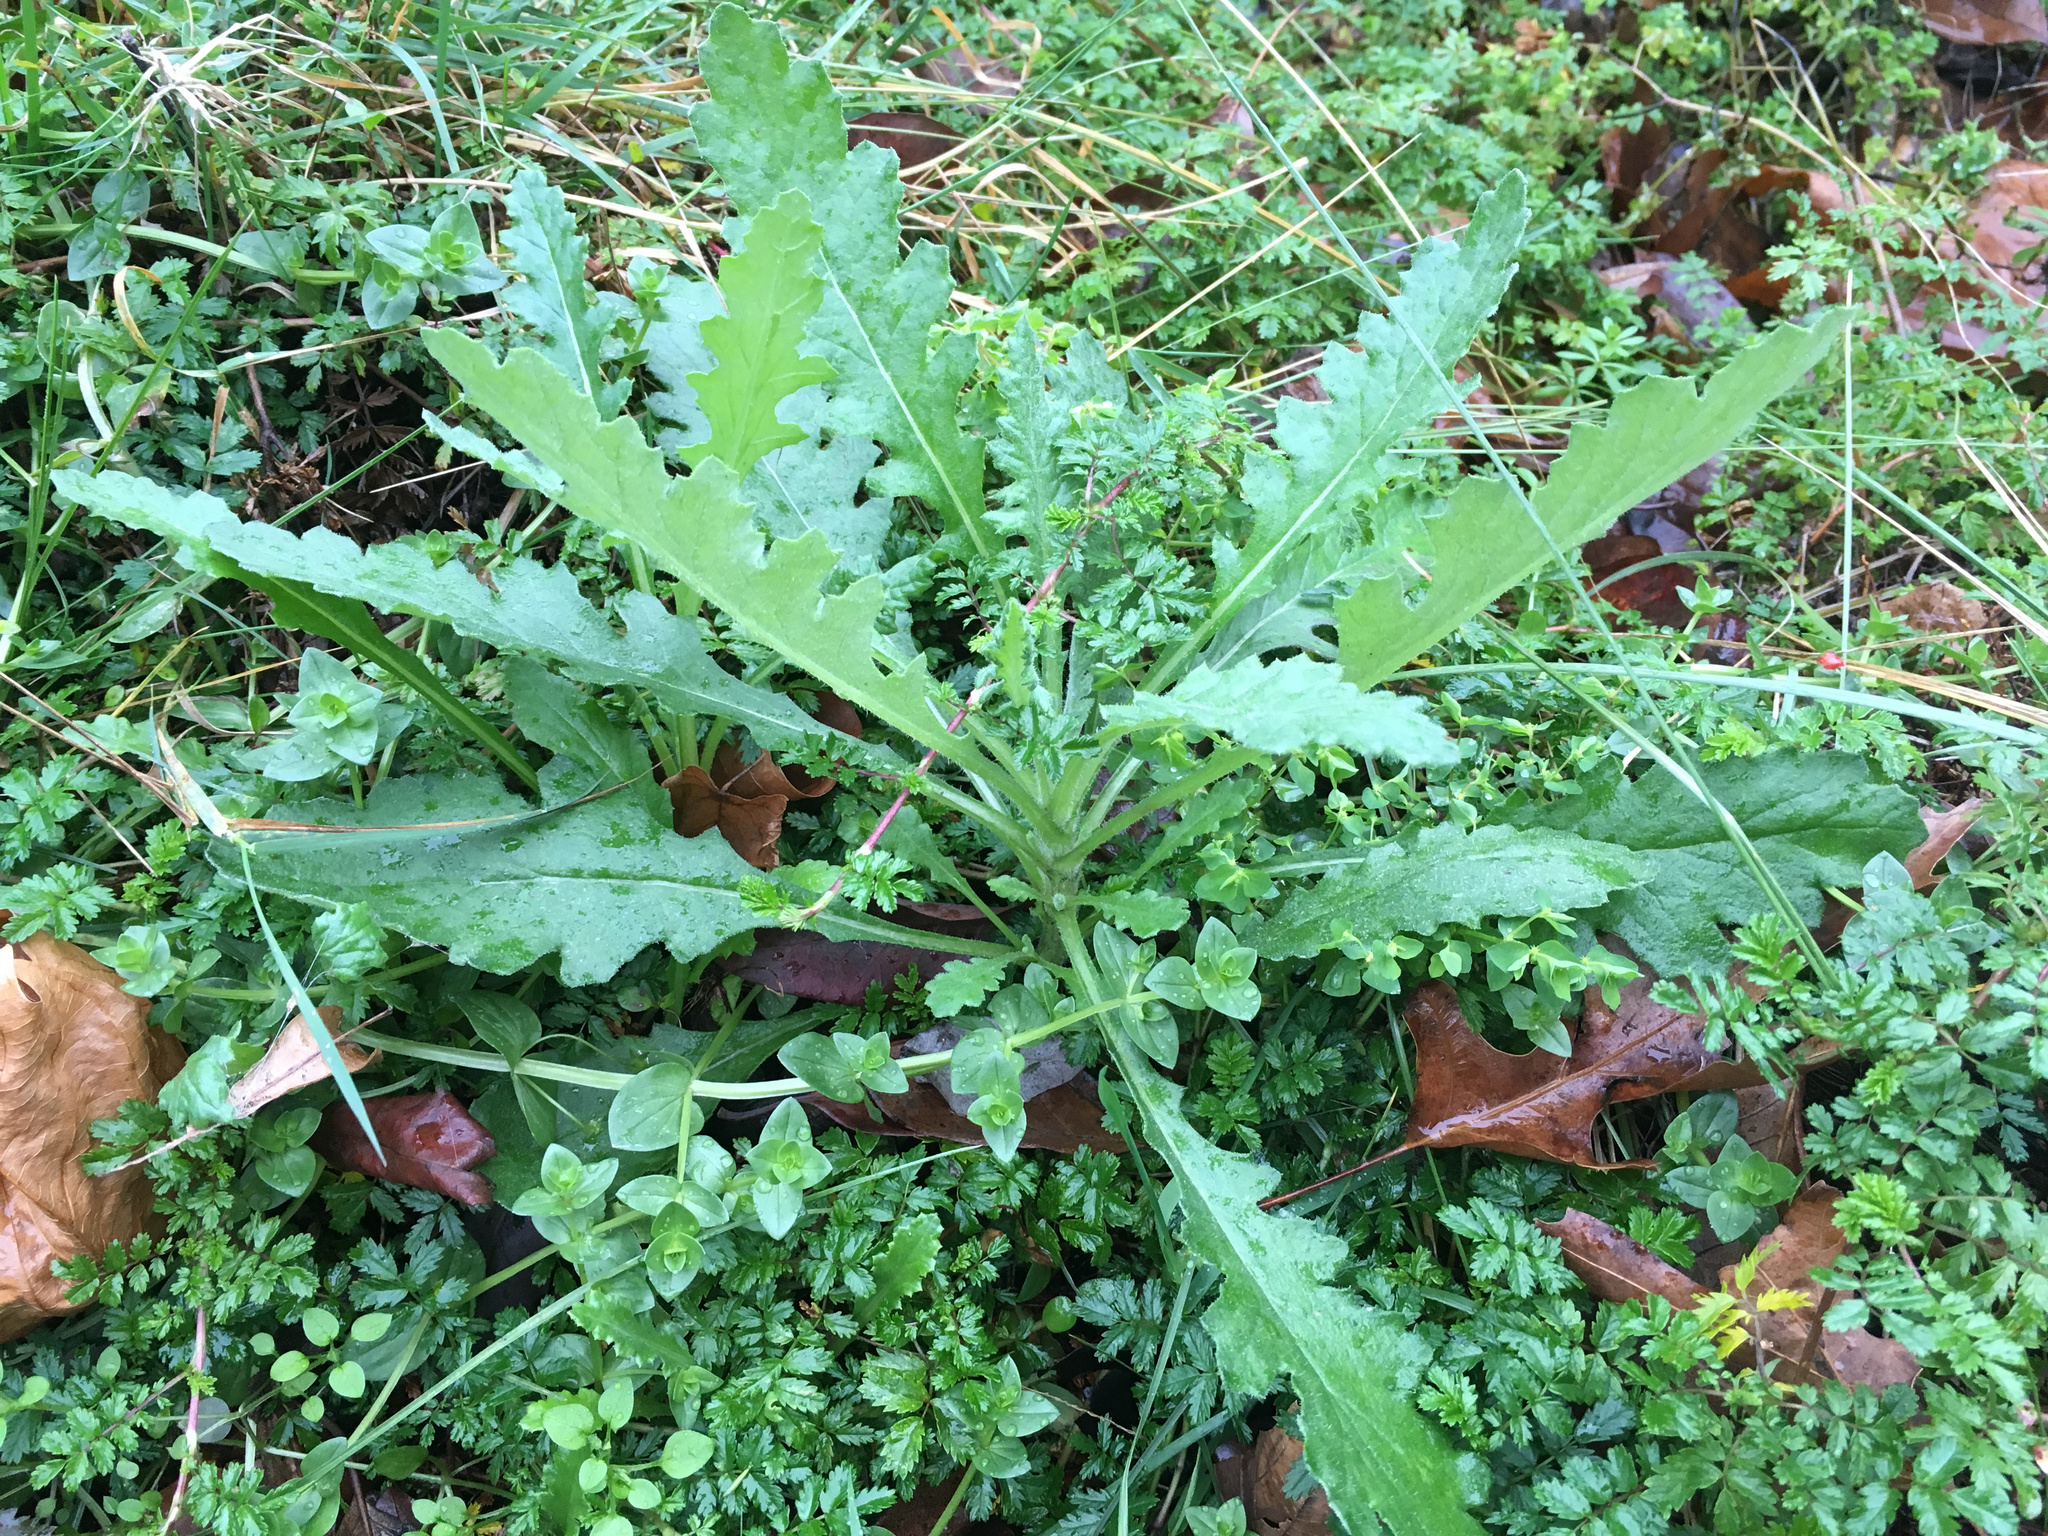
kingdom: Plantae
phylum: Tracheophyta
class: Magnoliopsida
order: Asterales
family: Asteraceae
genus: Senecio
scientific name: Senecio glomeratus
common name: Cutleaf burnweed
